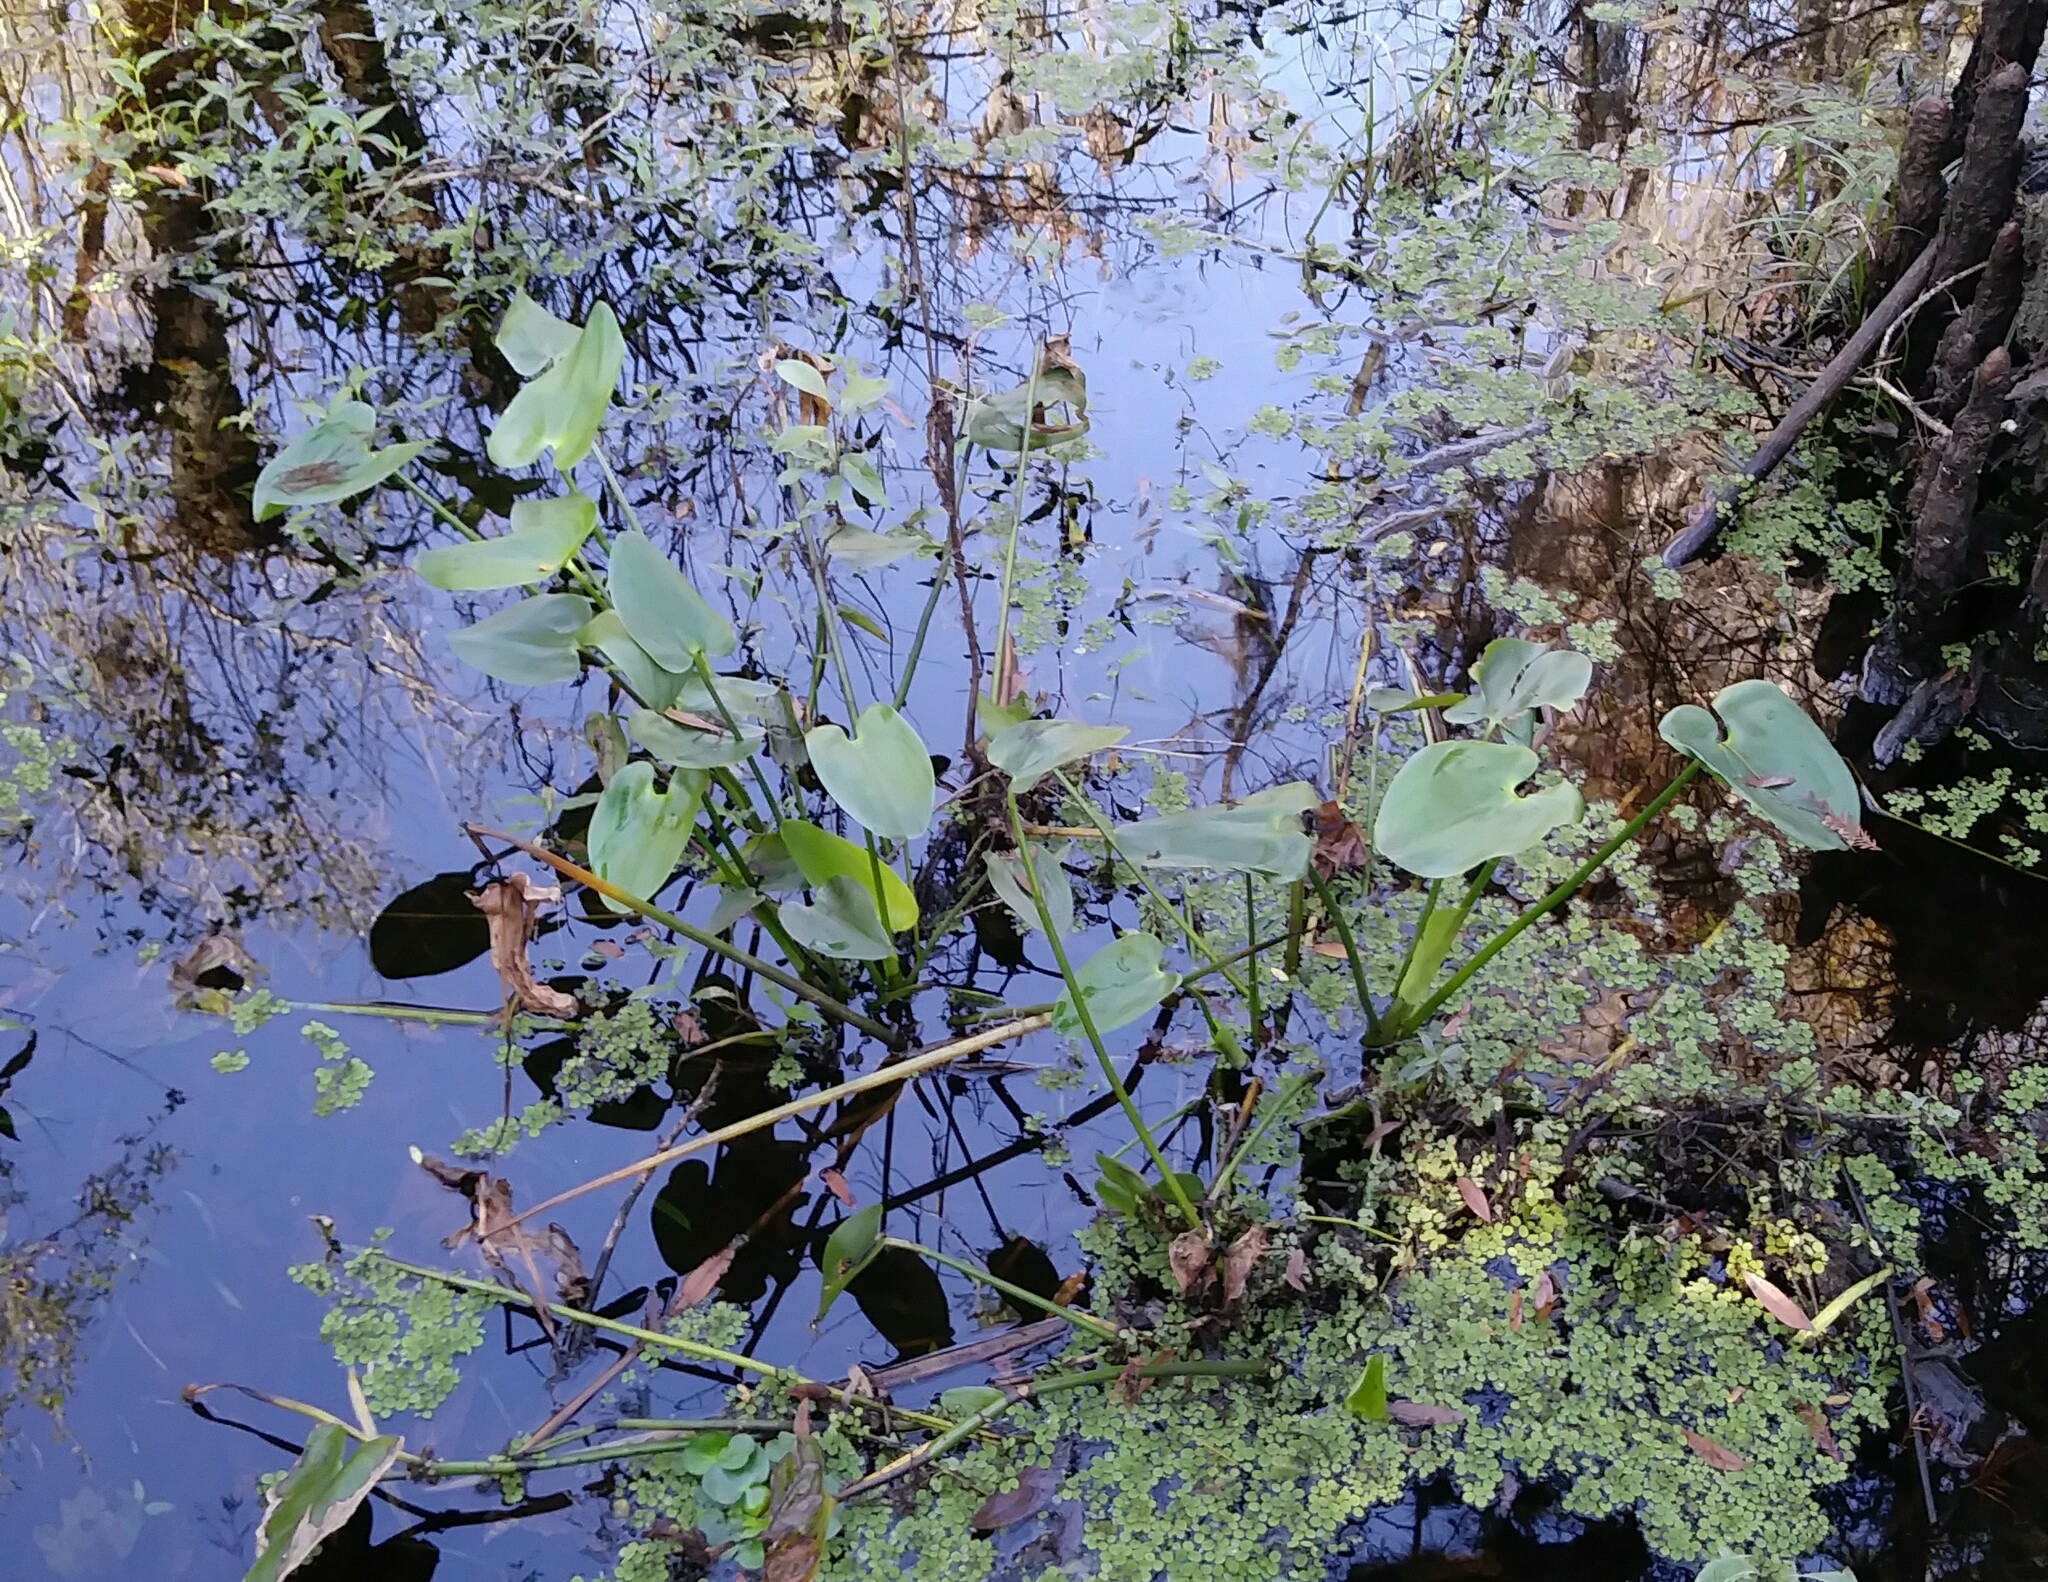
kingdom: Plantae
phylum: Tracheophyta
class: Liliopsida
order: Commelinales
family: Pontederiaceae
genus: Pontederia
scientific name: Pontederia cordata
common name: Pickerelweed
